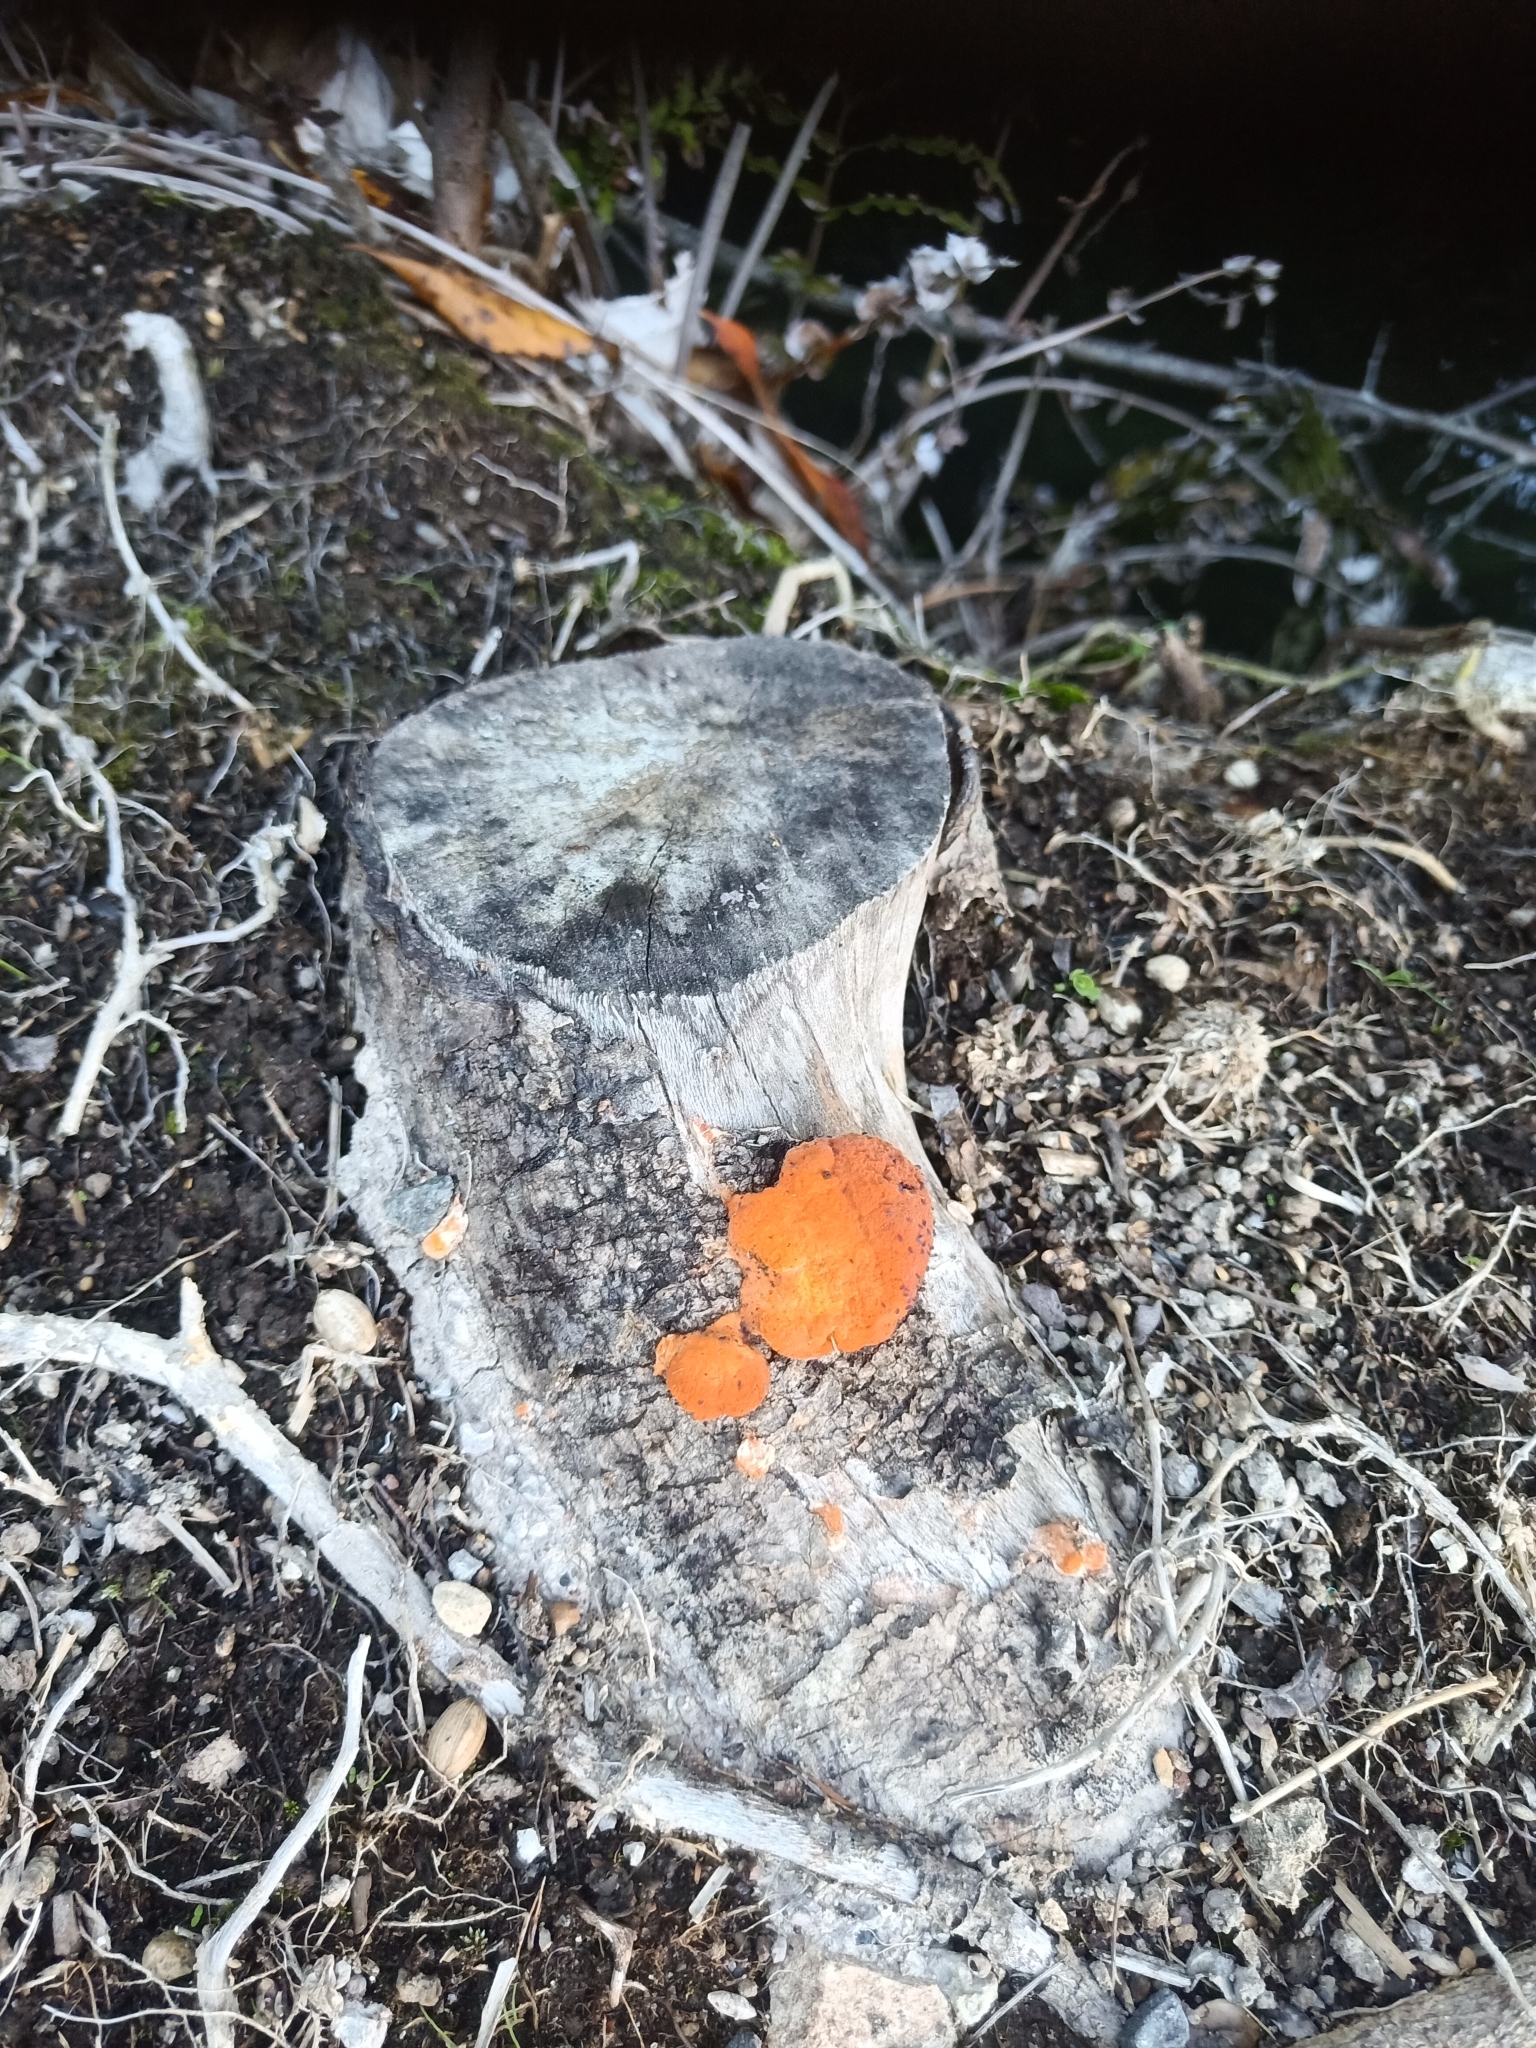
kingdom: Fungi
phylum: Basidiomycota
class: Agaricomycetes
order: Polyporales
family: Polyporaceae
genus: Trametes
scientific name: Trametes coccinea
